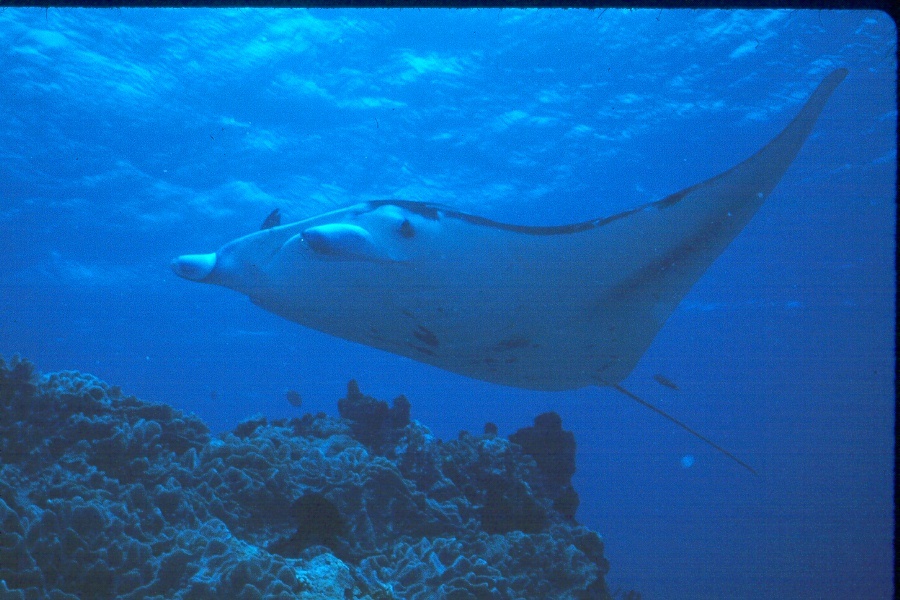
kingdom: Animalia
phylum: Chordata
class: Elasmobranchii
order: Myliobatiformes
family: Myliobatidae
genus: Mobula
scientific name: Mobula alfredi
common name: Reef manta ray
